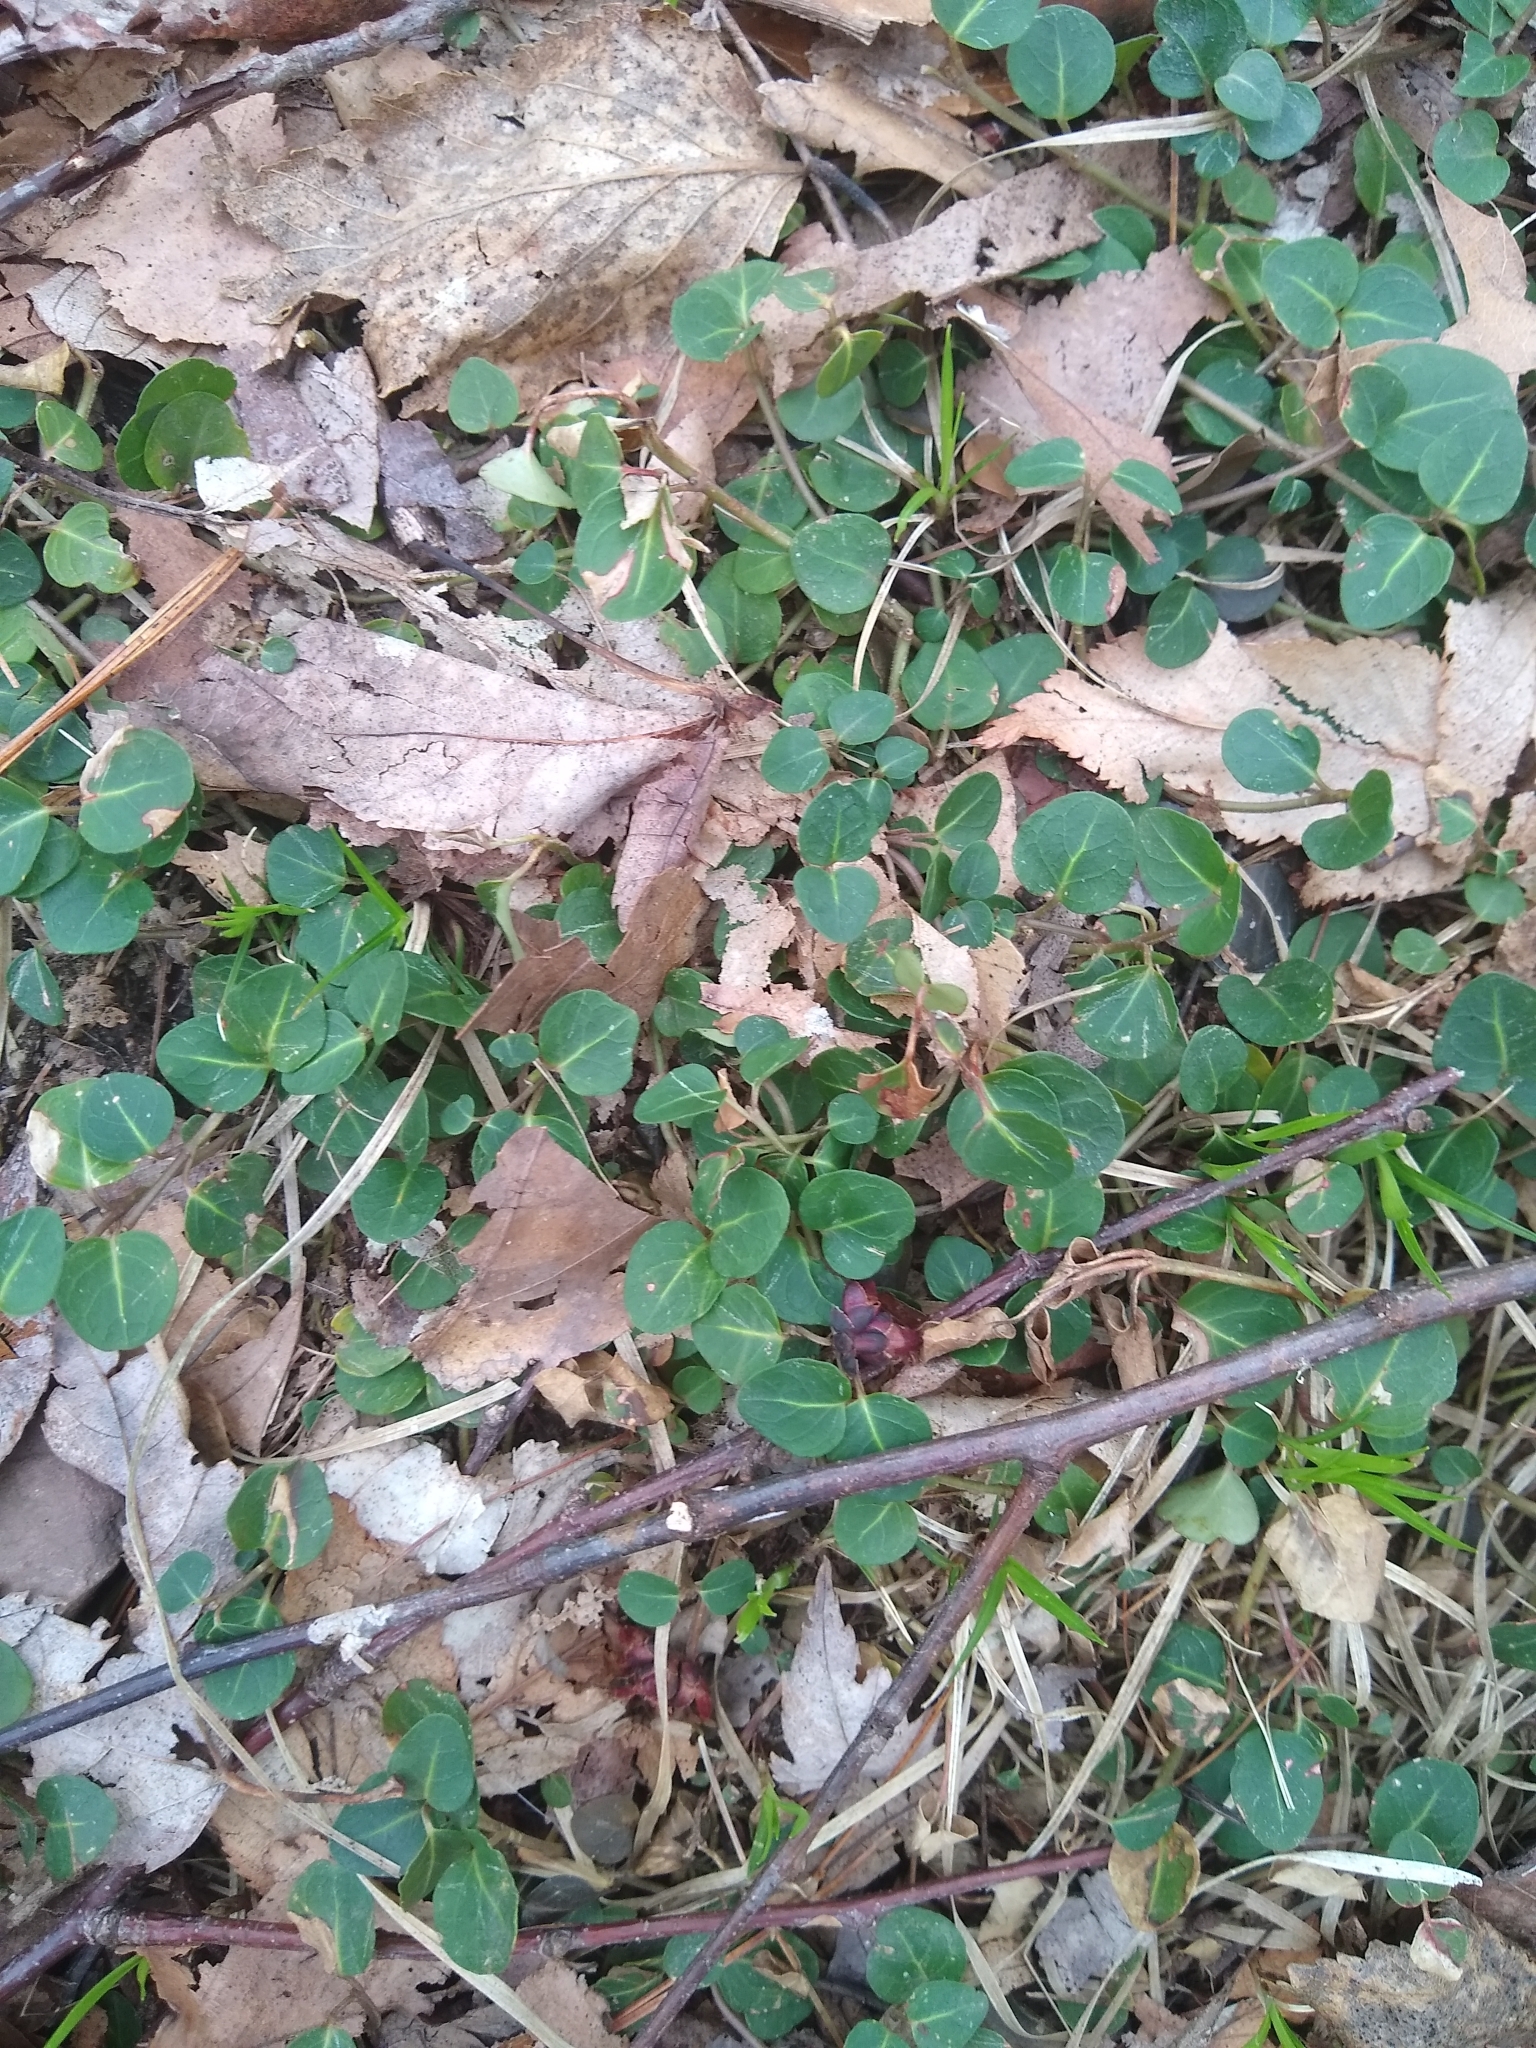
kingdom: Plantae
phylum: Tracheophyta
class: Magnoliopsida
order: Gentianales
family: Rubiaceae
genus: Mitchella
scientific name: Mitchella repens
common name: Partridge-berry
